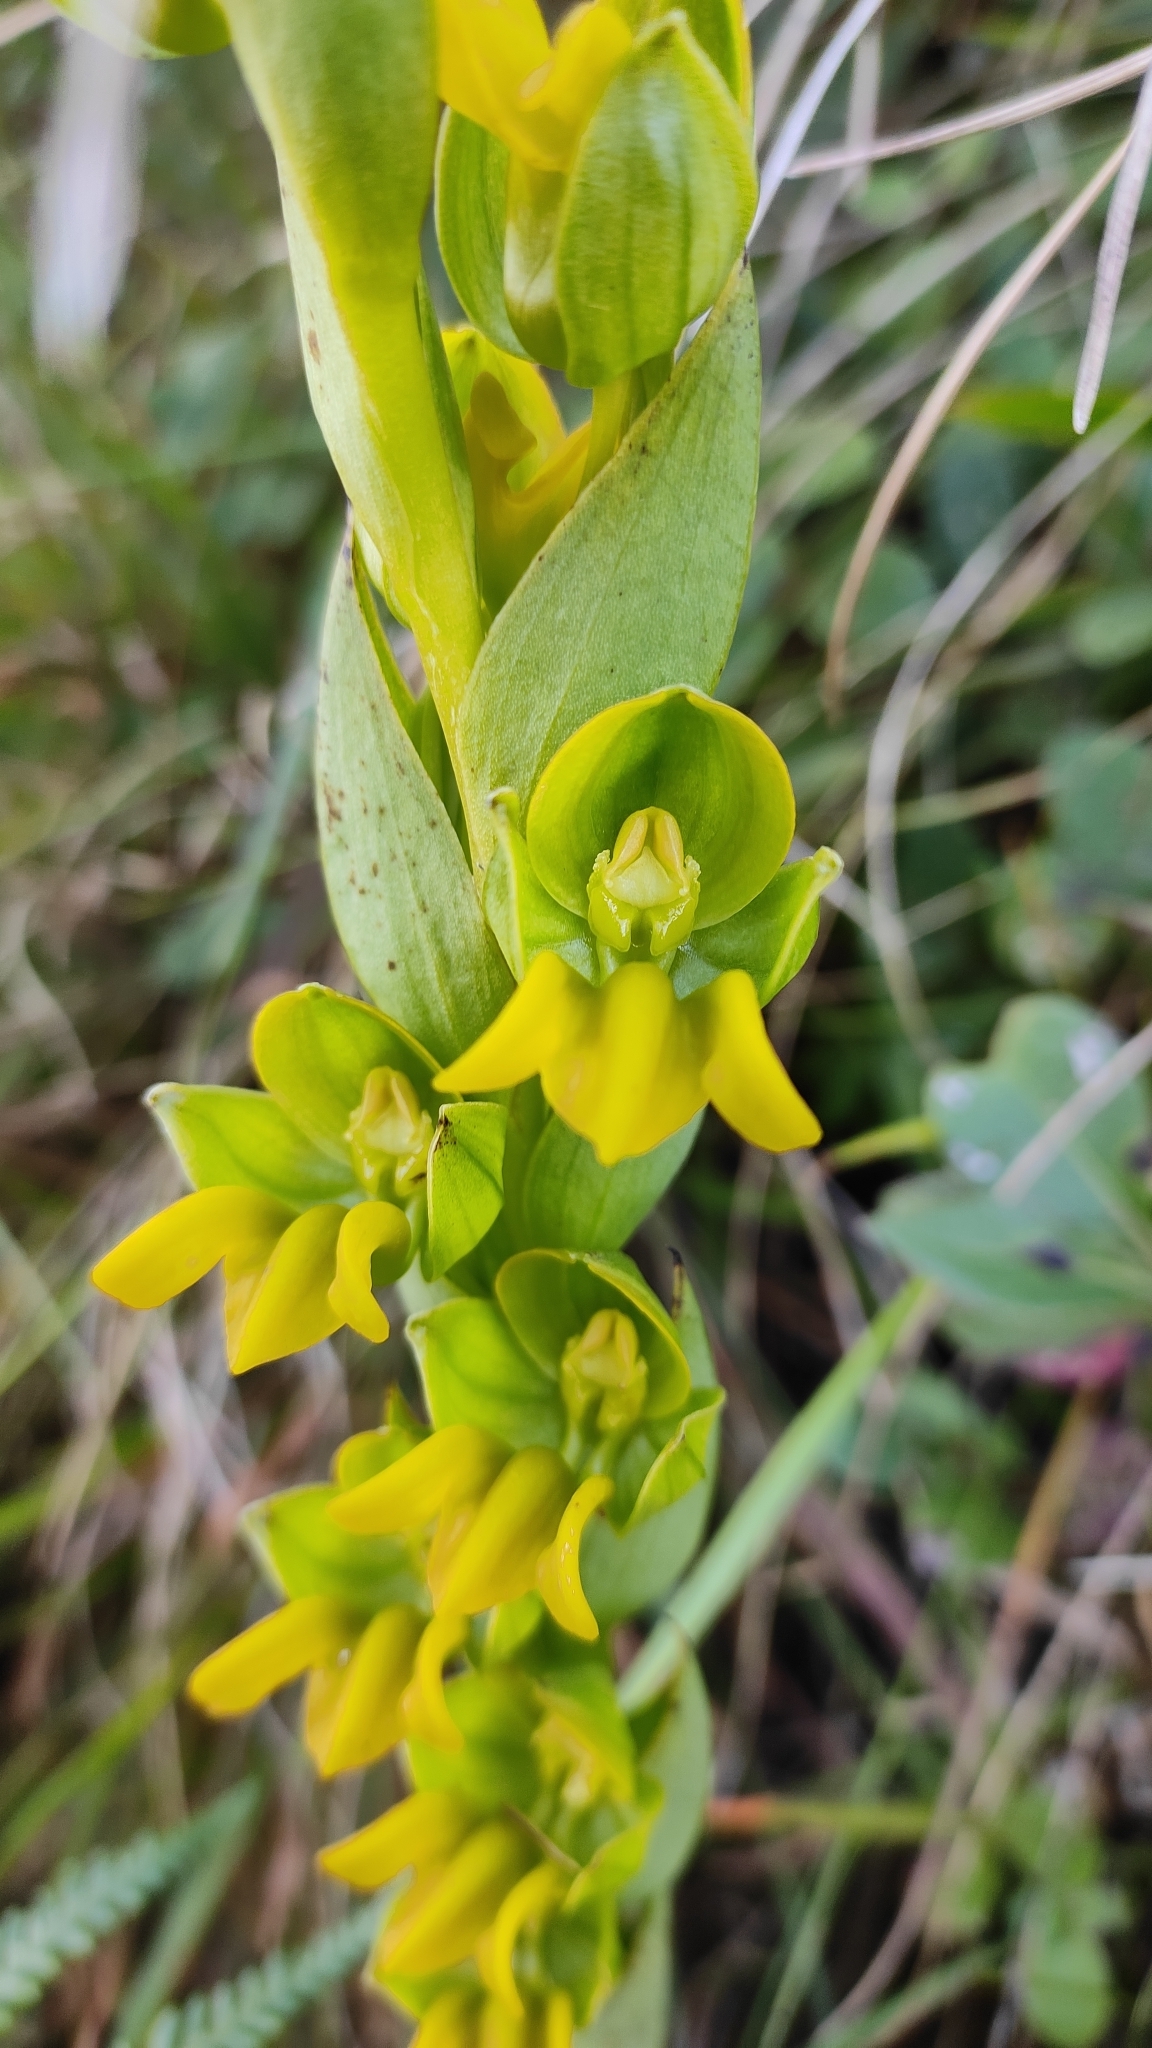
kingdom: Plantae
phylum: Tracheophyta
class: Liliopsida
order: Asparagales
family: Orchidaceae
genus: Habenaria
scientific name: Habenaria perrottetiana
